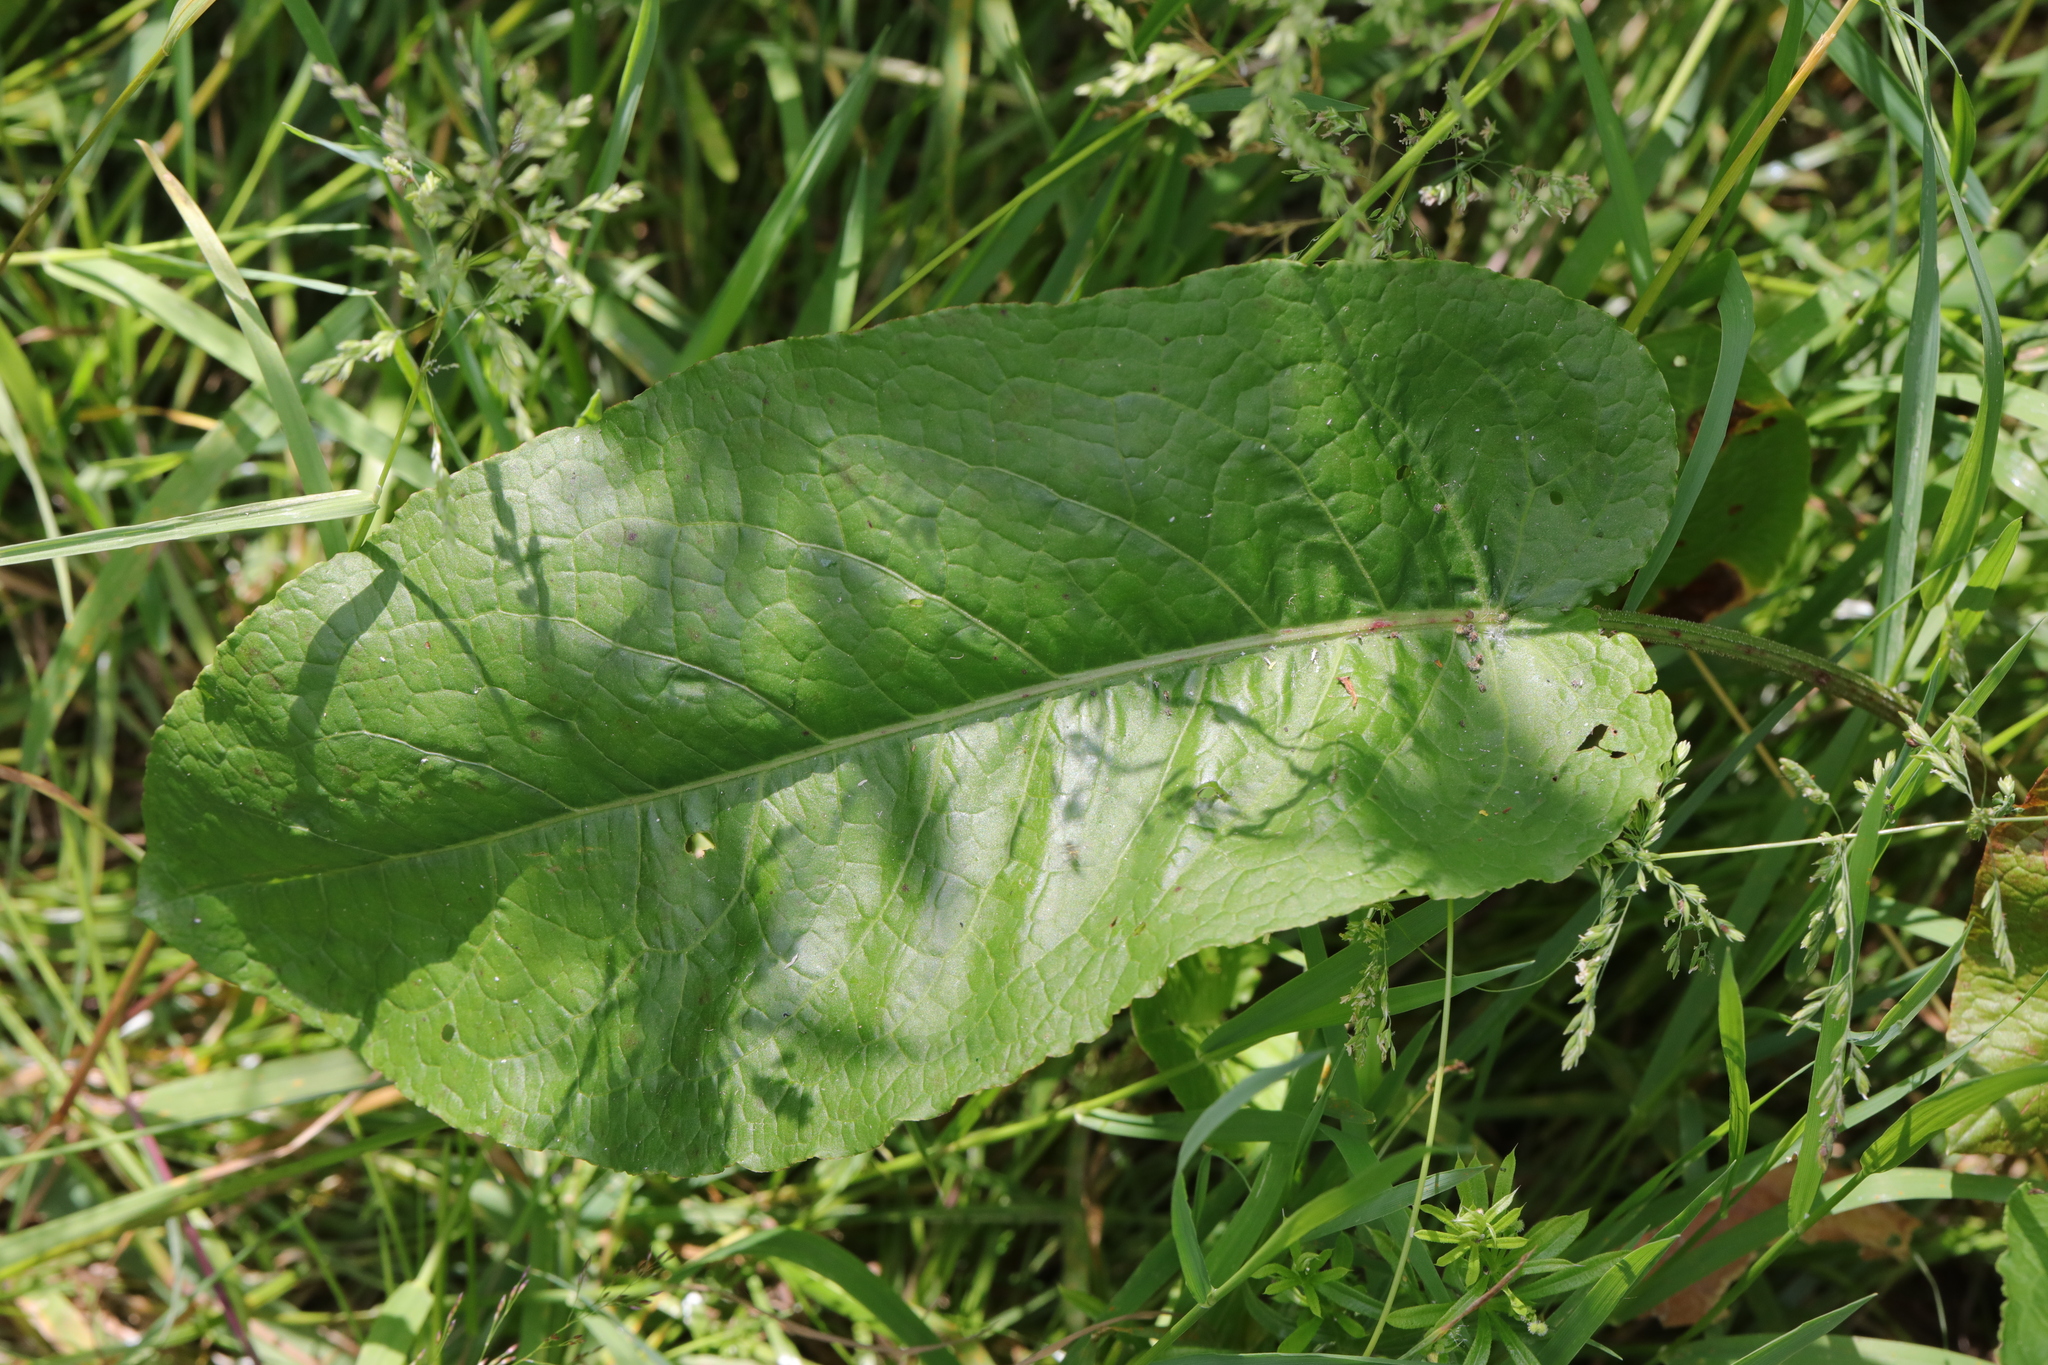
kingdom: Plantae
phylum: Tracheophyta
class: Magnoliopsida
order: Caryophyllales
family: Polygonaceae
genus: Rumex
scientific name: Rumex obtusifolius
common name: Bitter dock
